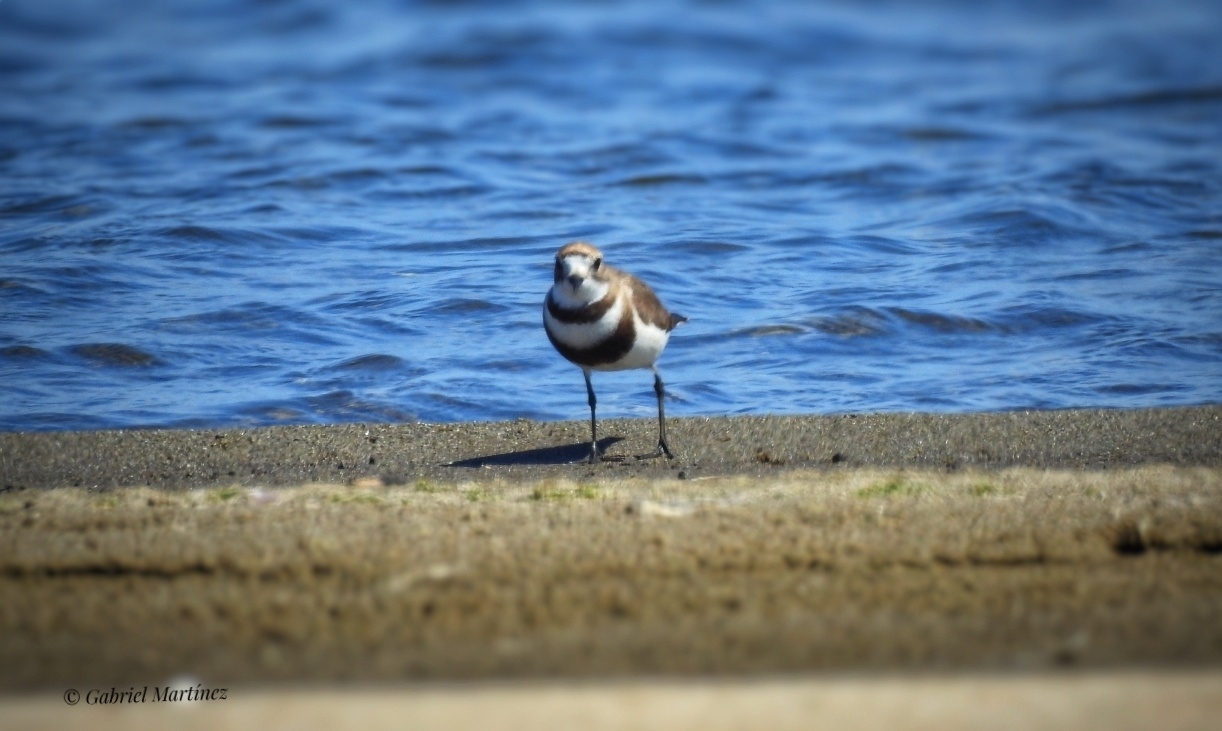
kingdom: Animalia
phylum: Chordata
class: Aves
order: Charadriiformes
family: Charadriidae
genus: Anarhynchus
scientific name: Anarhynchus
